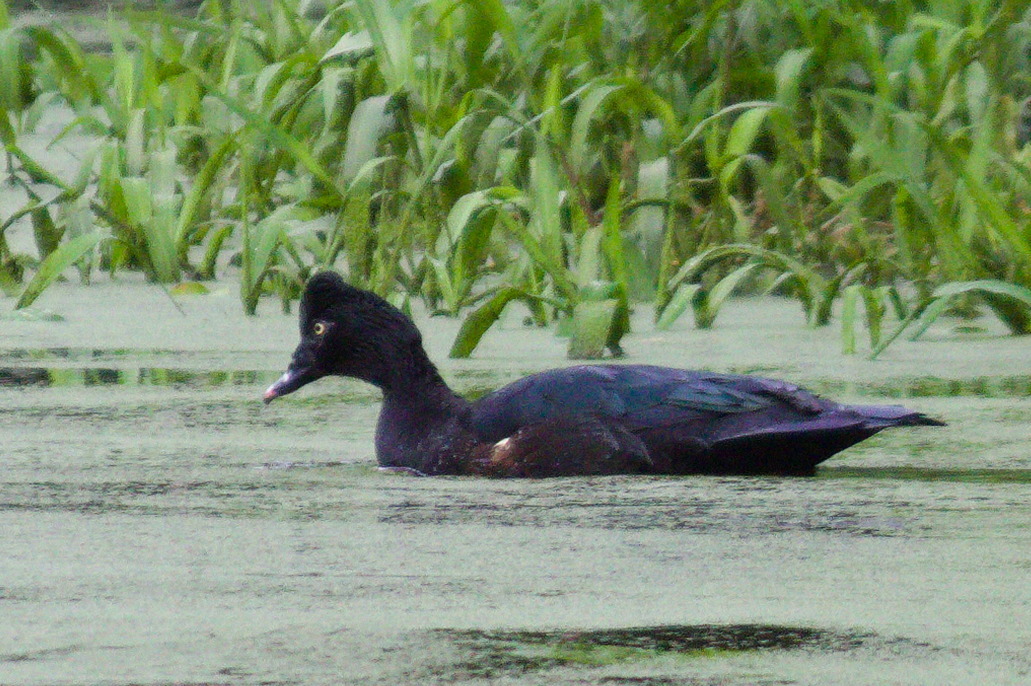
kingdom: Animalia
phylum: Chordata
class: Aves
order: Anseriformes
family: Anatidae
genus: Cairina
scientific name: Cairina moschata
